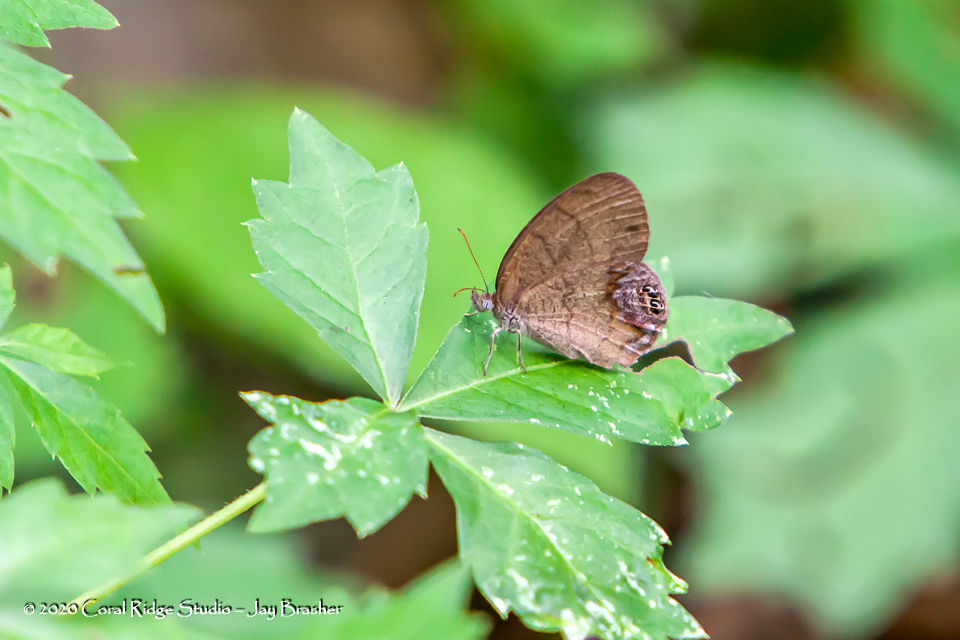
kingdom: Animalia
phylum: Arthropoda
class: Insecta
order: Lepidoptera
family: Nymphalidae
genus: Euptychia
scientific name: Euptychia cornelius
